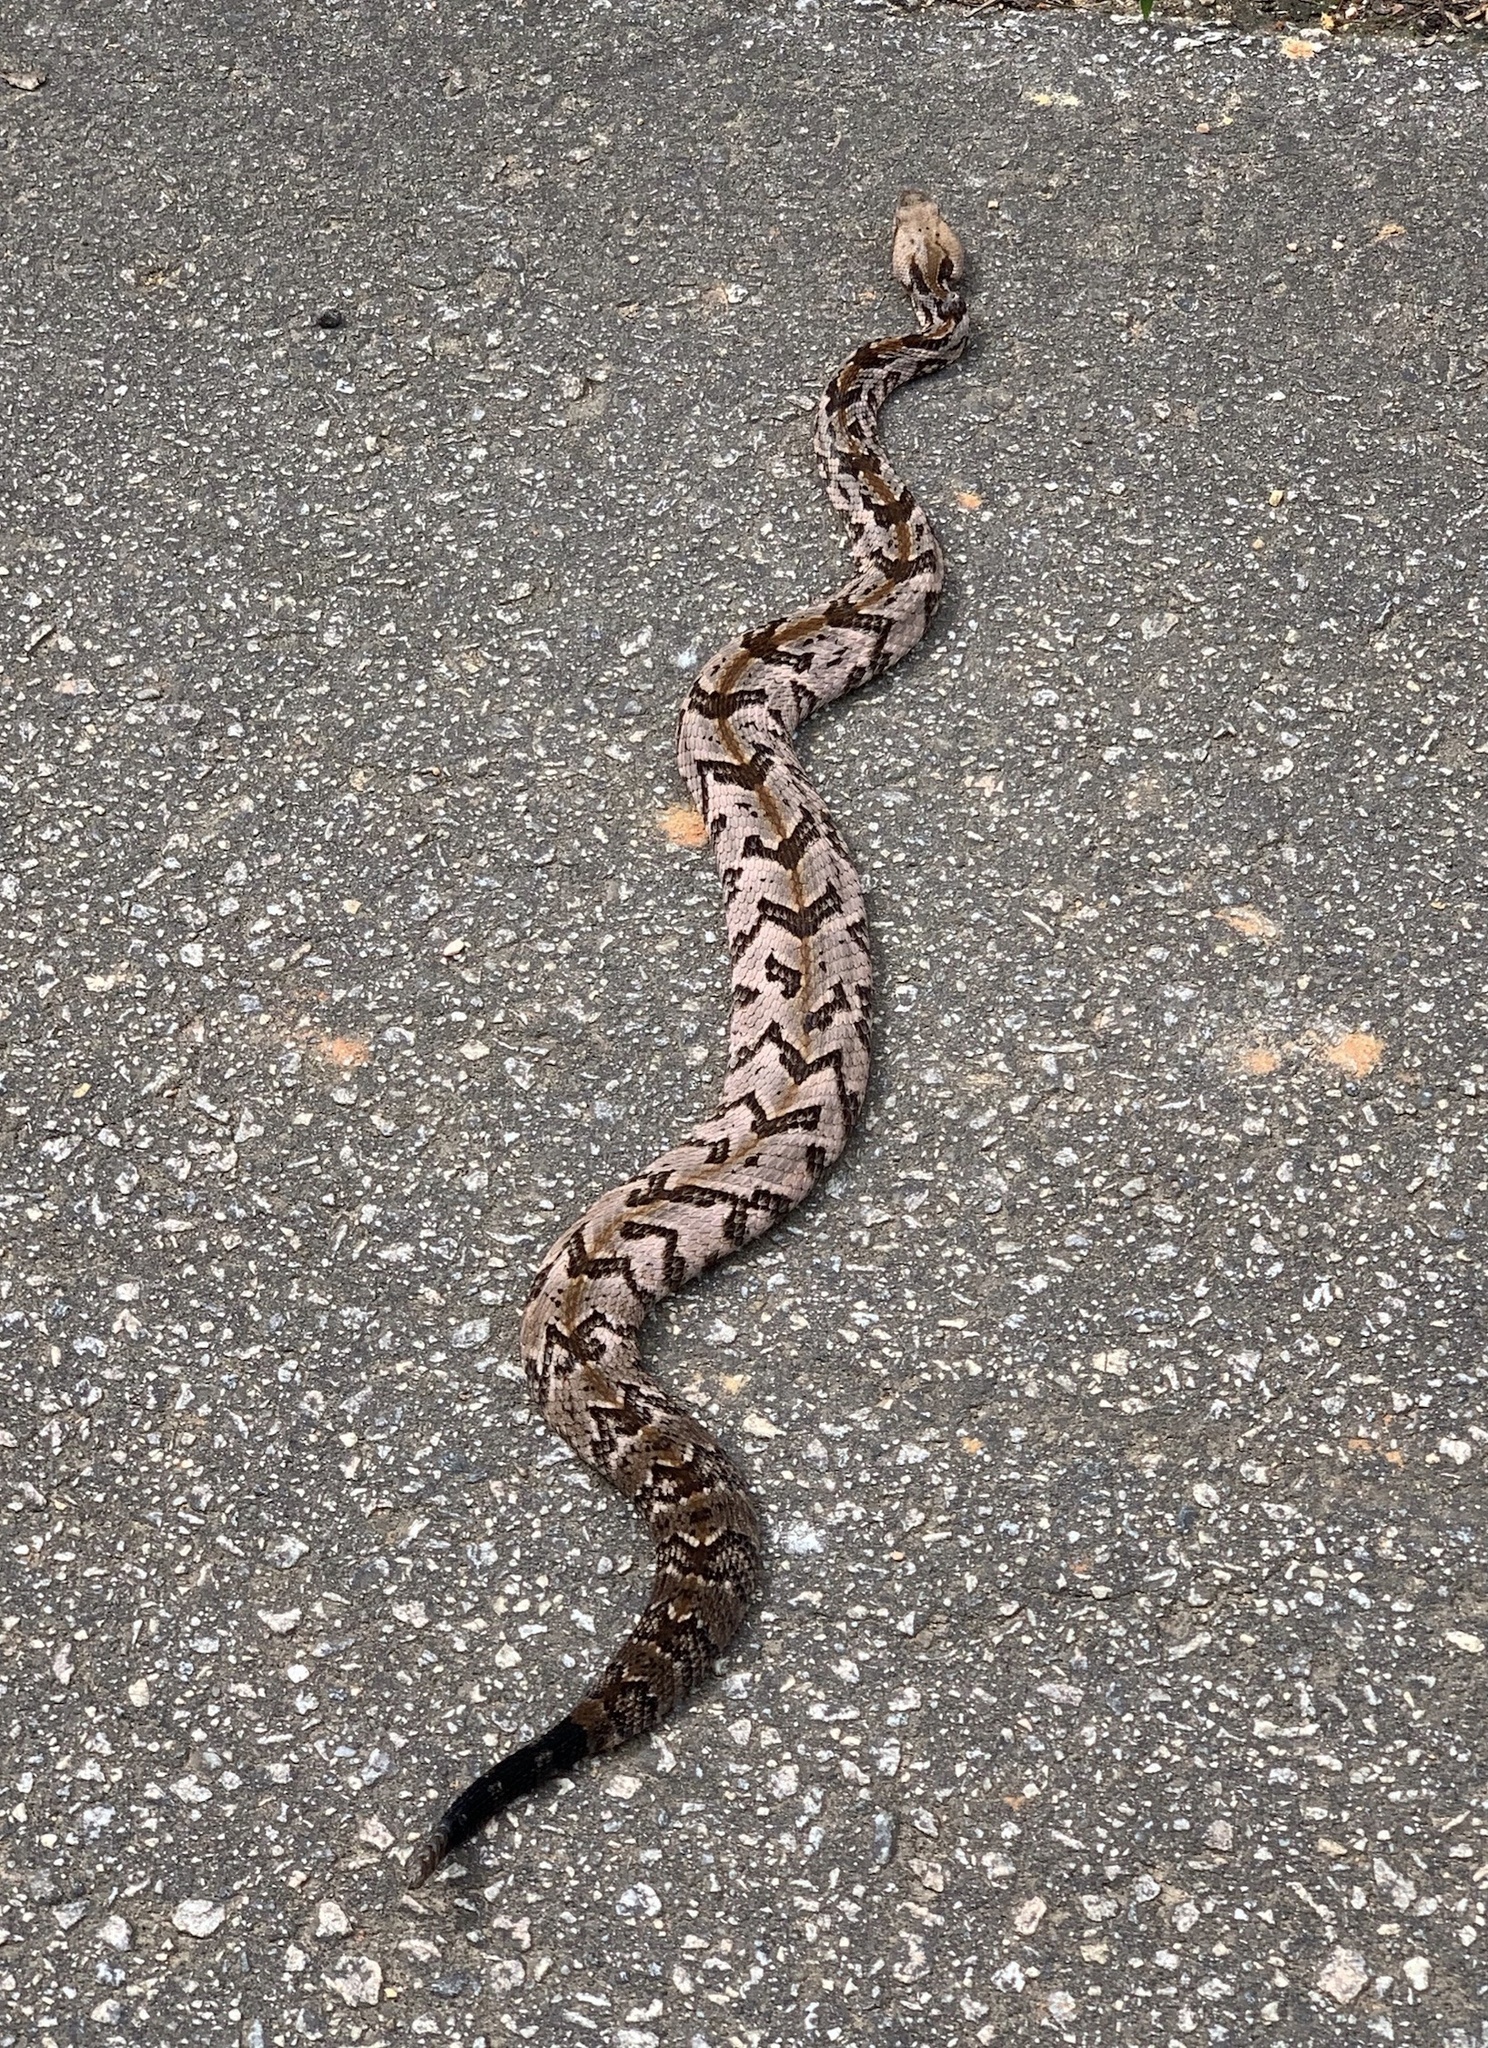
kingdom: Animalia
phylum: Chordata
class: Squamata
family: Viperidae
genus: Crotalus
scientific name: Crotalus horridus
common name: Timber rattlesnake
